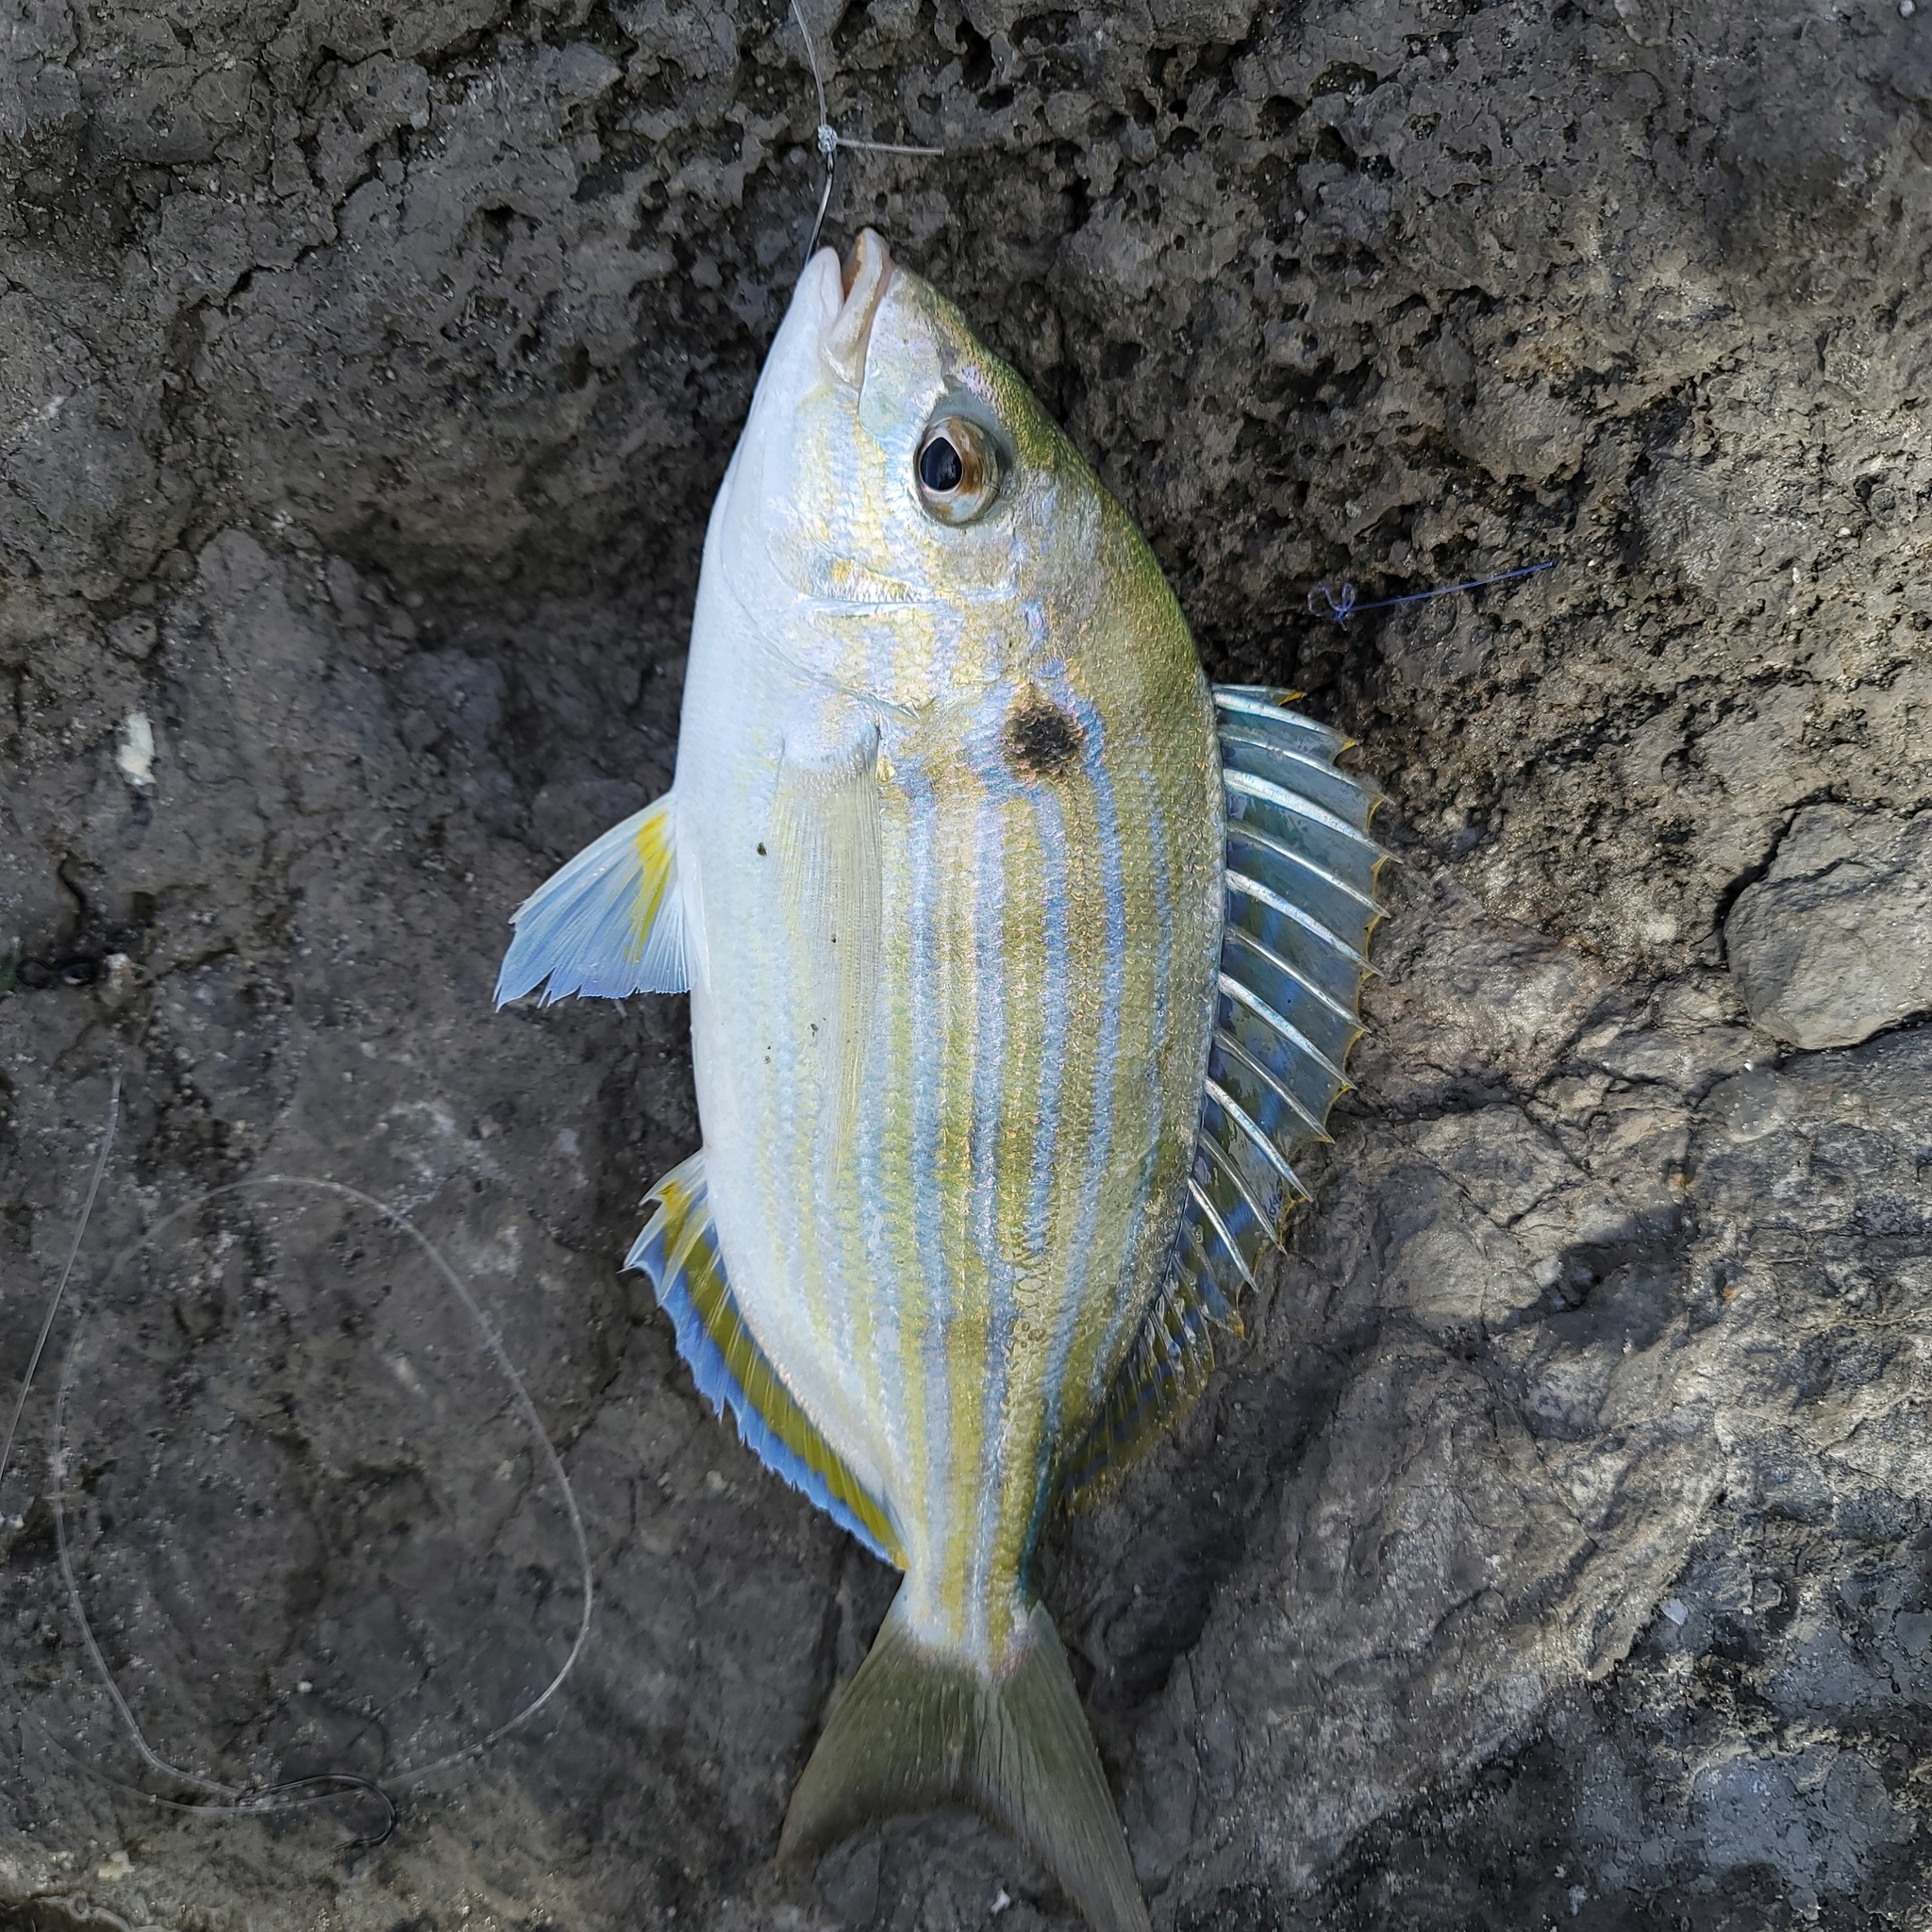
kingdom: Animalia
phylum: Chordata
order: Perciformes
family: Sparidae
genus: Lagodon
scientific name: Lagodon rhomboides
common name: Pinfish
